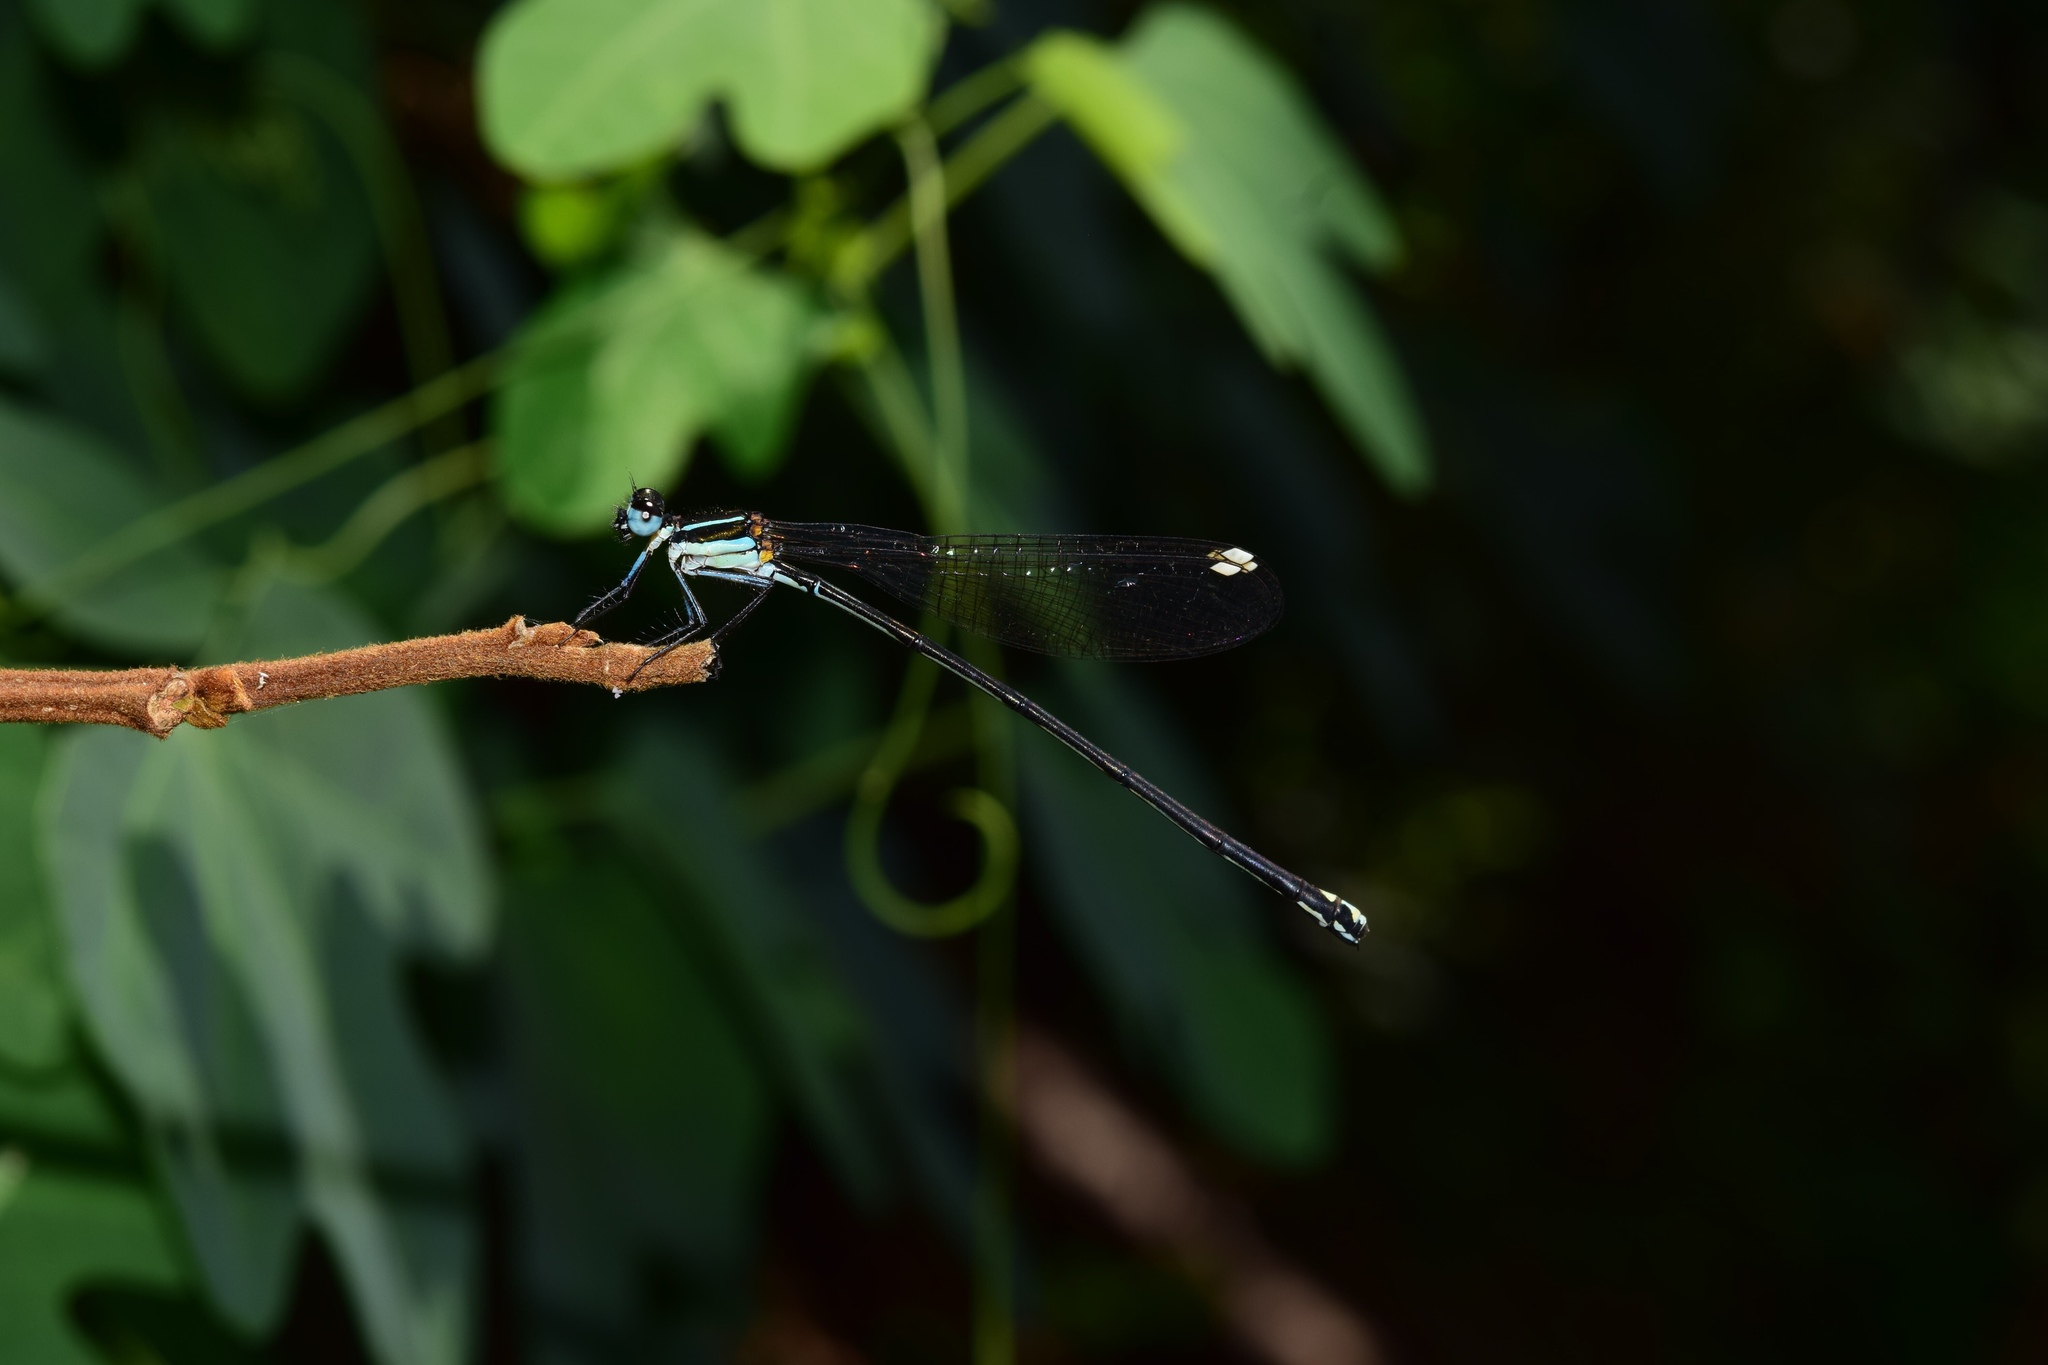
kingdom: Animalia
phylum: Arthropoda
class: Insecta
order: Odonata
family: Platycnemididae
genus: Allocnemis
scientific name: Allocnemis leucosticta
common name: Goldtail
